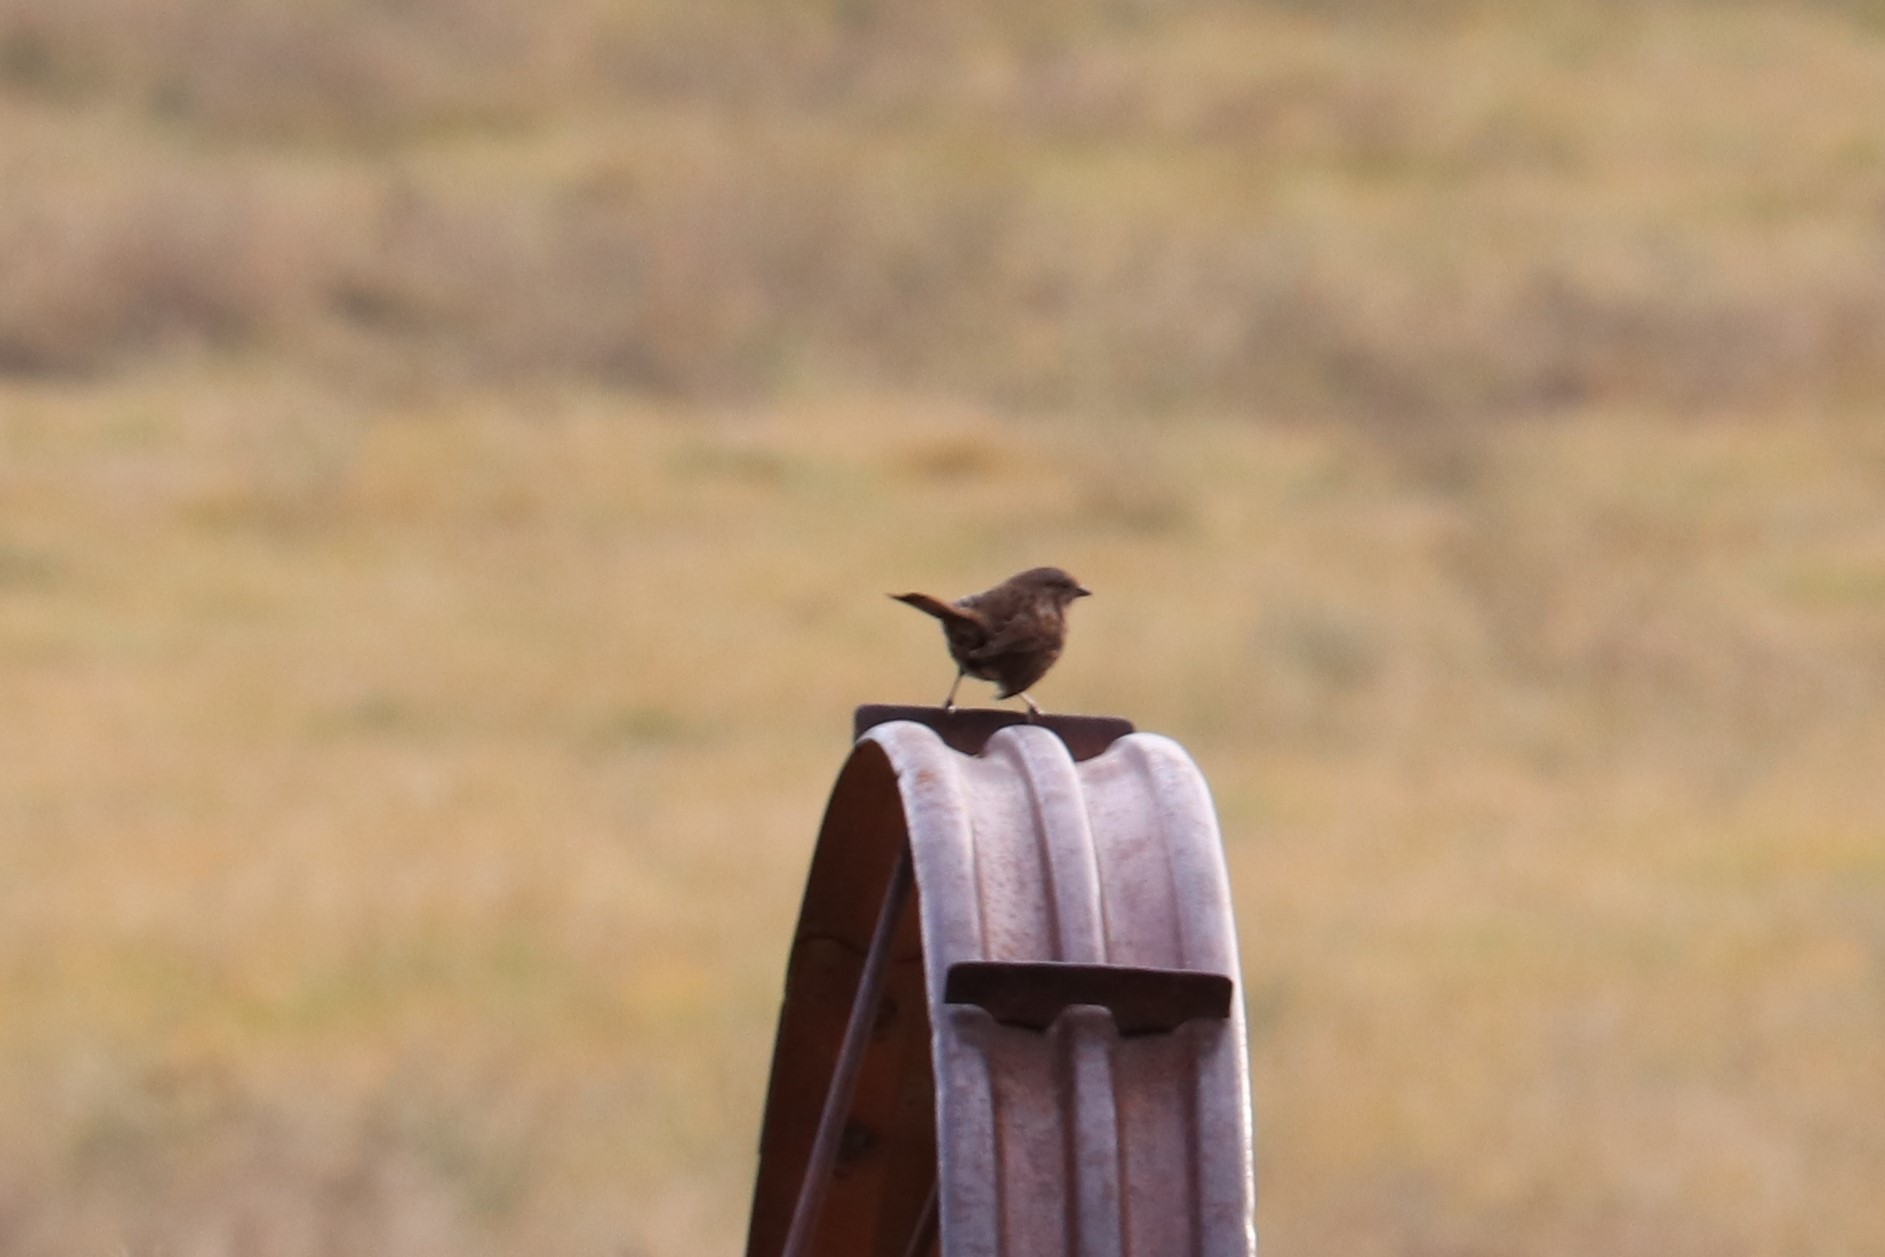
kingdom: Animalia
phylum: Chordata
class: Aves
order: Passeriformes
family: Passerellidae
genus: Melospiza
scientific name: Melospiza melodia
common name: Song sparrow
